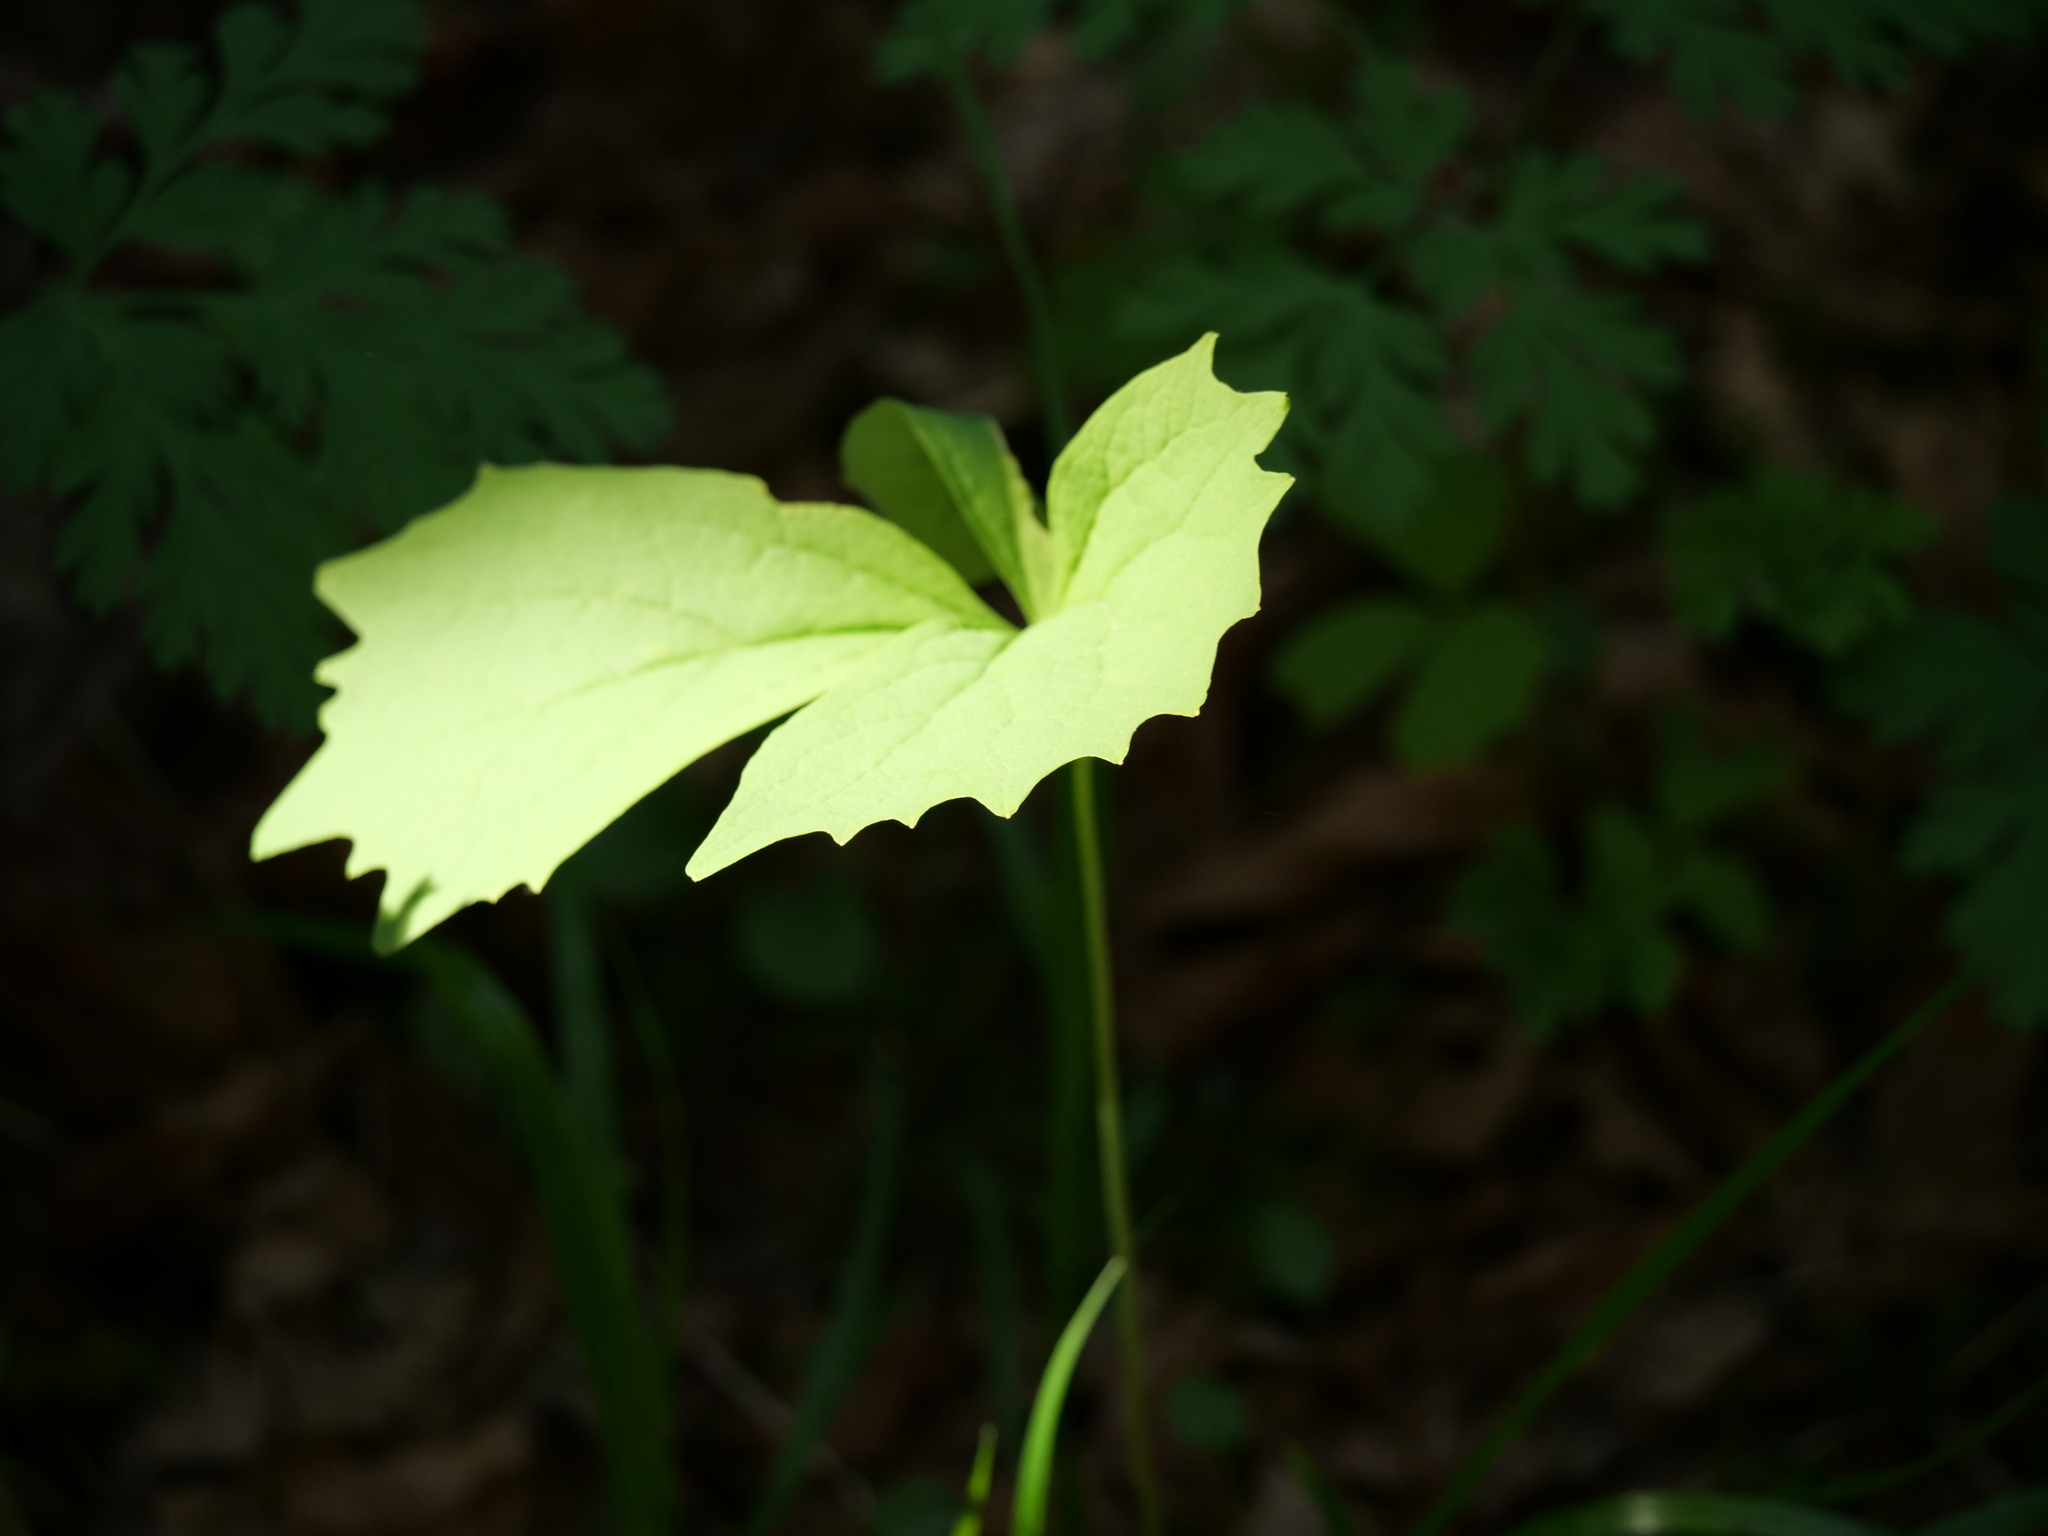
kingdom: Plantae
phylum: Tracheophyta
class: Magnoliopsida
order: Ranunculales
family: Berberidaceae
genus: Achlys
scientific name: Achlys triphylla
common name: Vanilla-leaf
